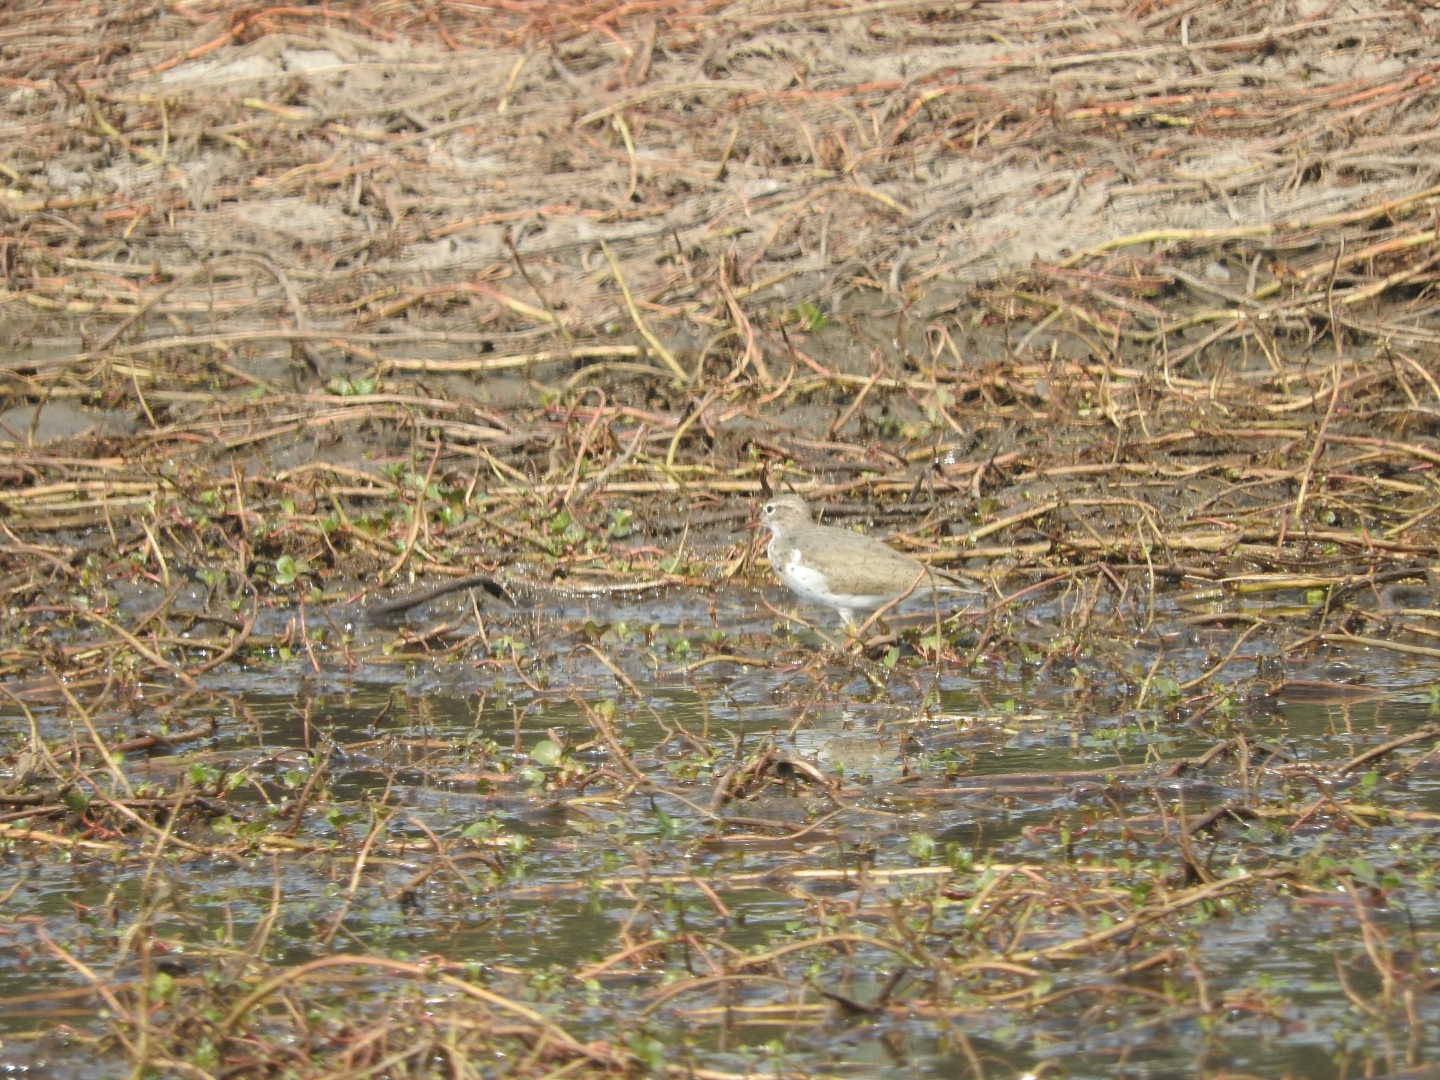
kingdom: Animalia
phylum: Chordata
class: Aves
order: Charadriiformes
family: Scolopacidae
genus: Actitis
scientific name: Actitis macularius
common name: Spotted sandpiper
